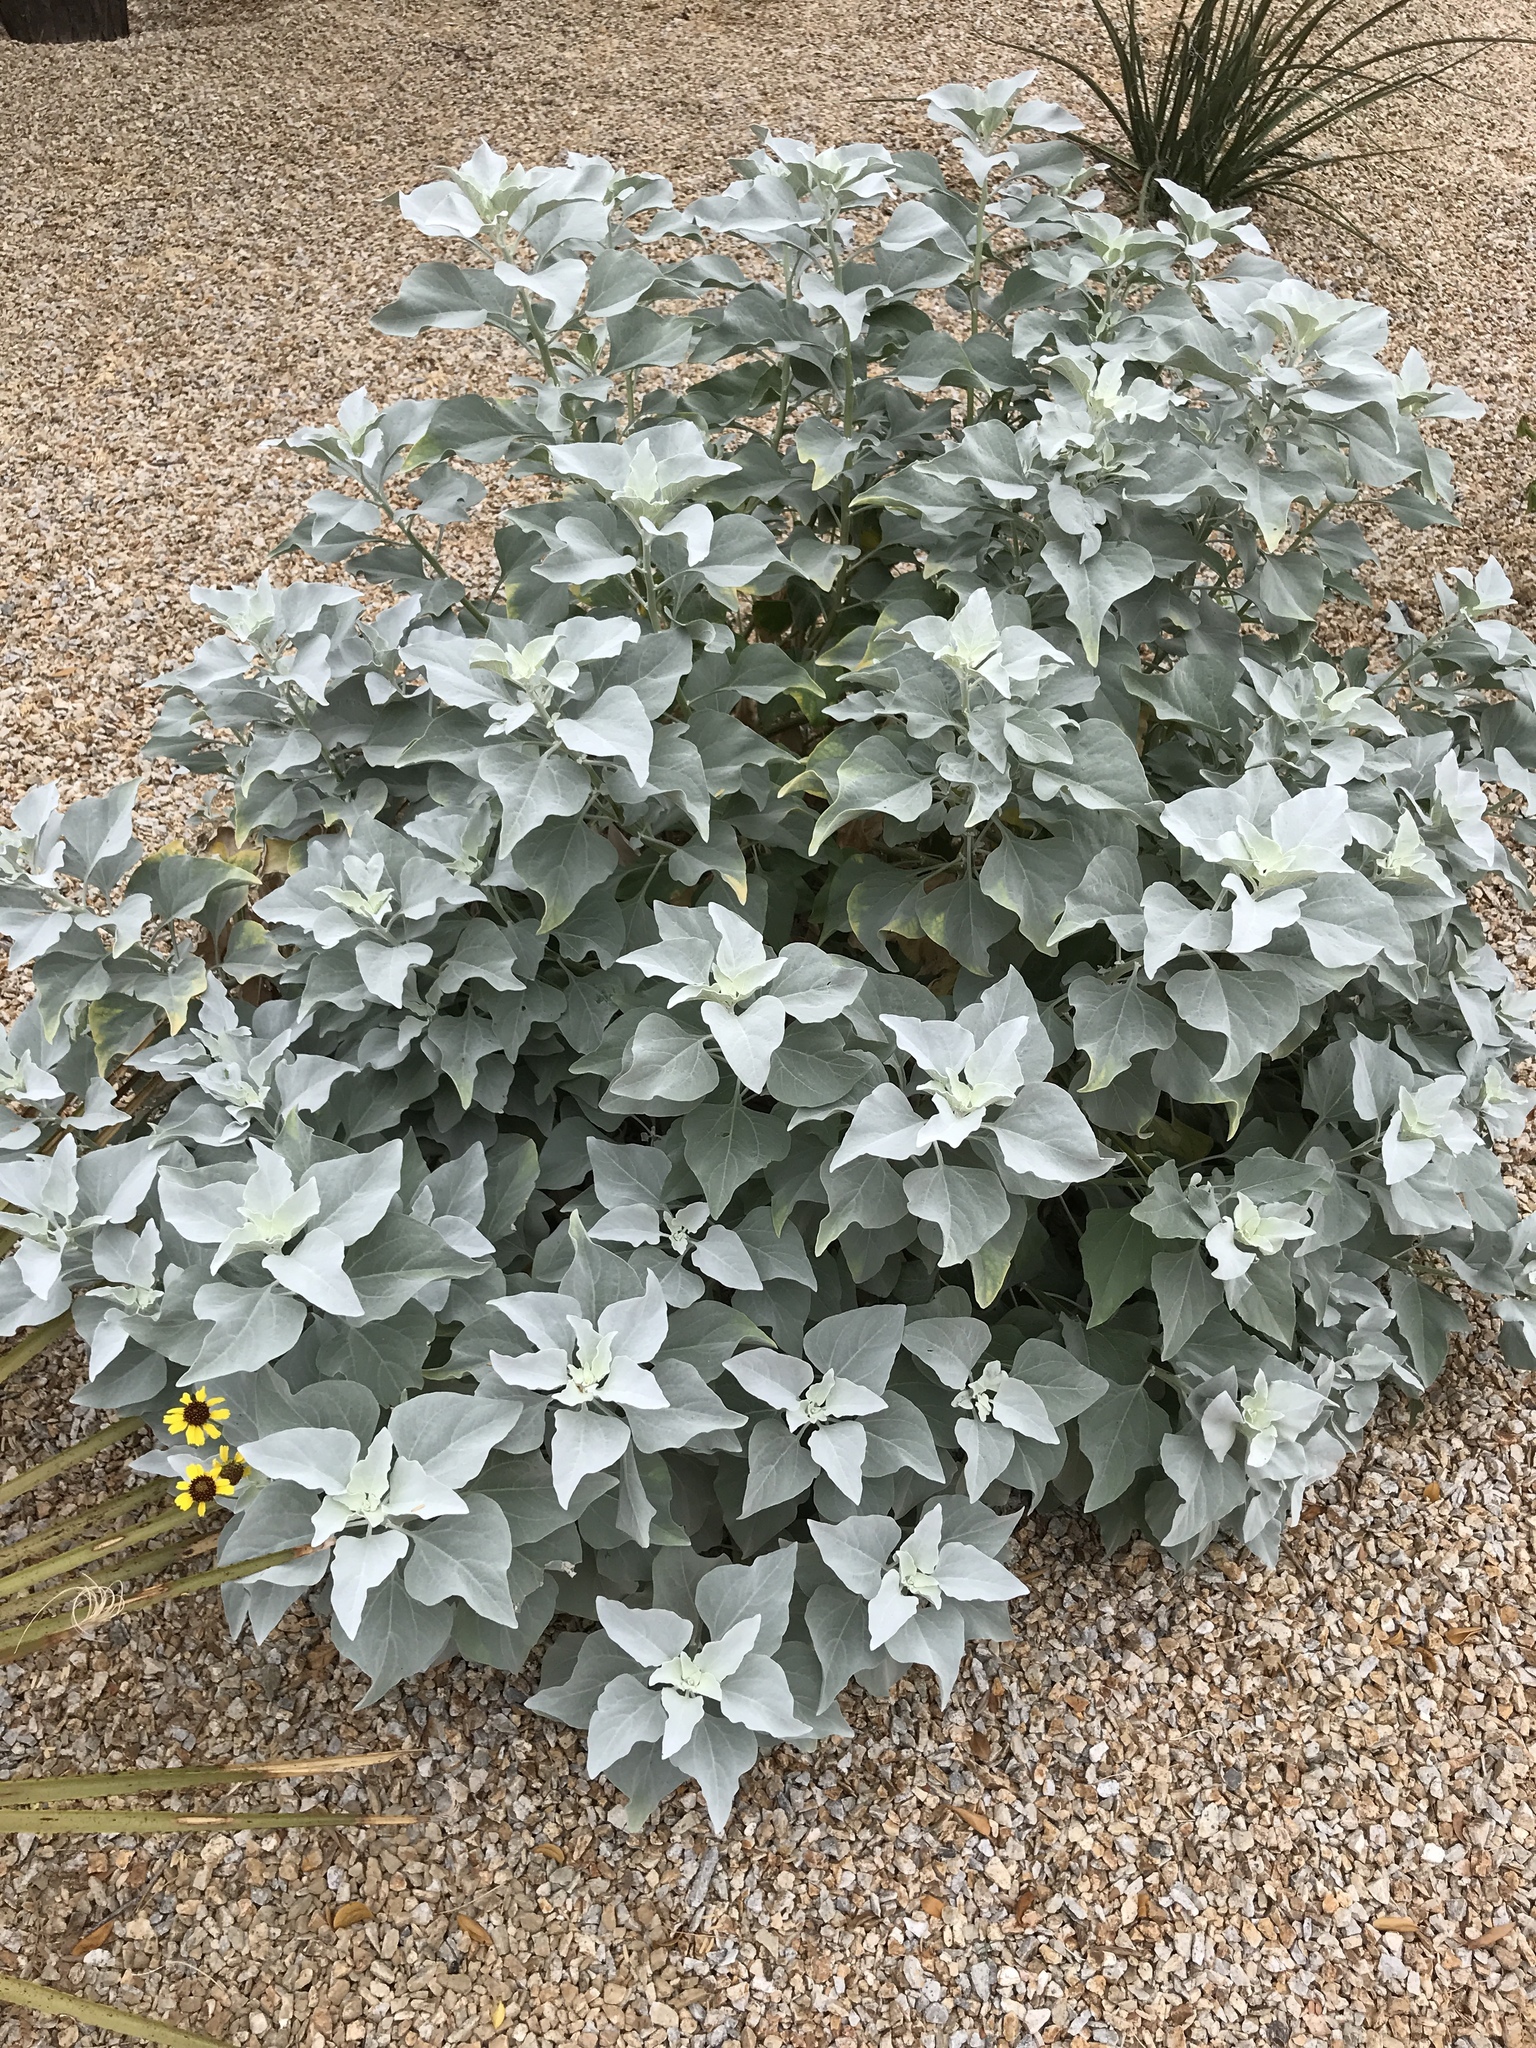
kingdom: Plantae
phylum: Tracheophyta
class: Magnoliopsida
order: Asterales
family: Asteraceae
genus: Encelia
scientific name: Encelia farinosa
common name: Brittlebush
